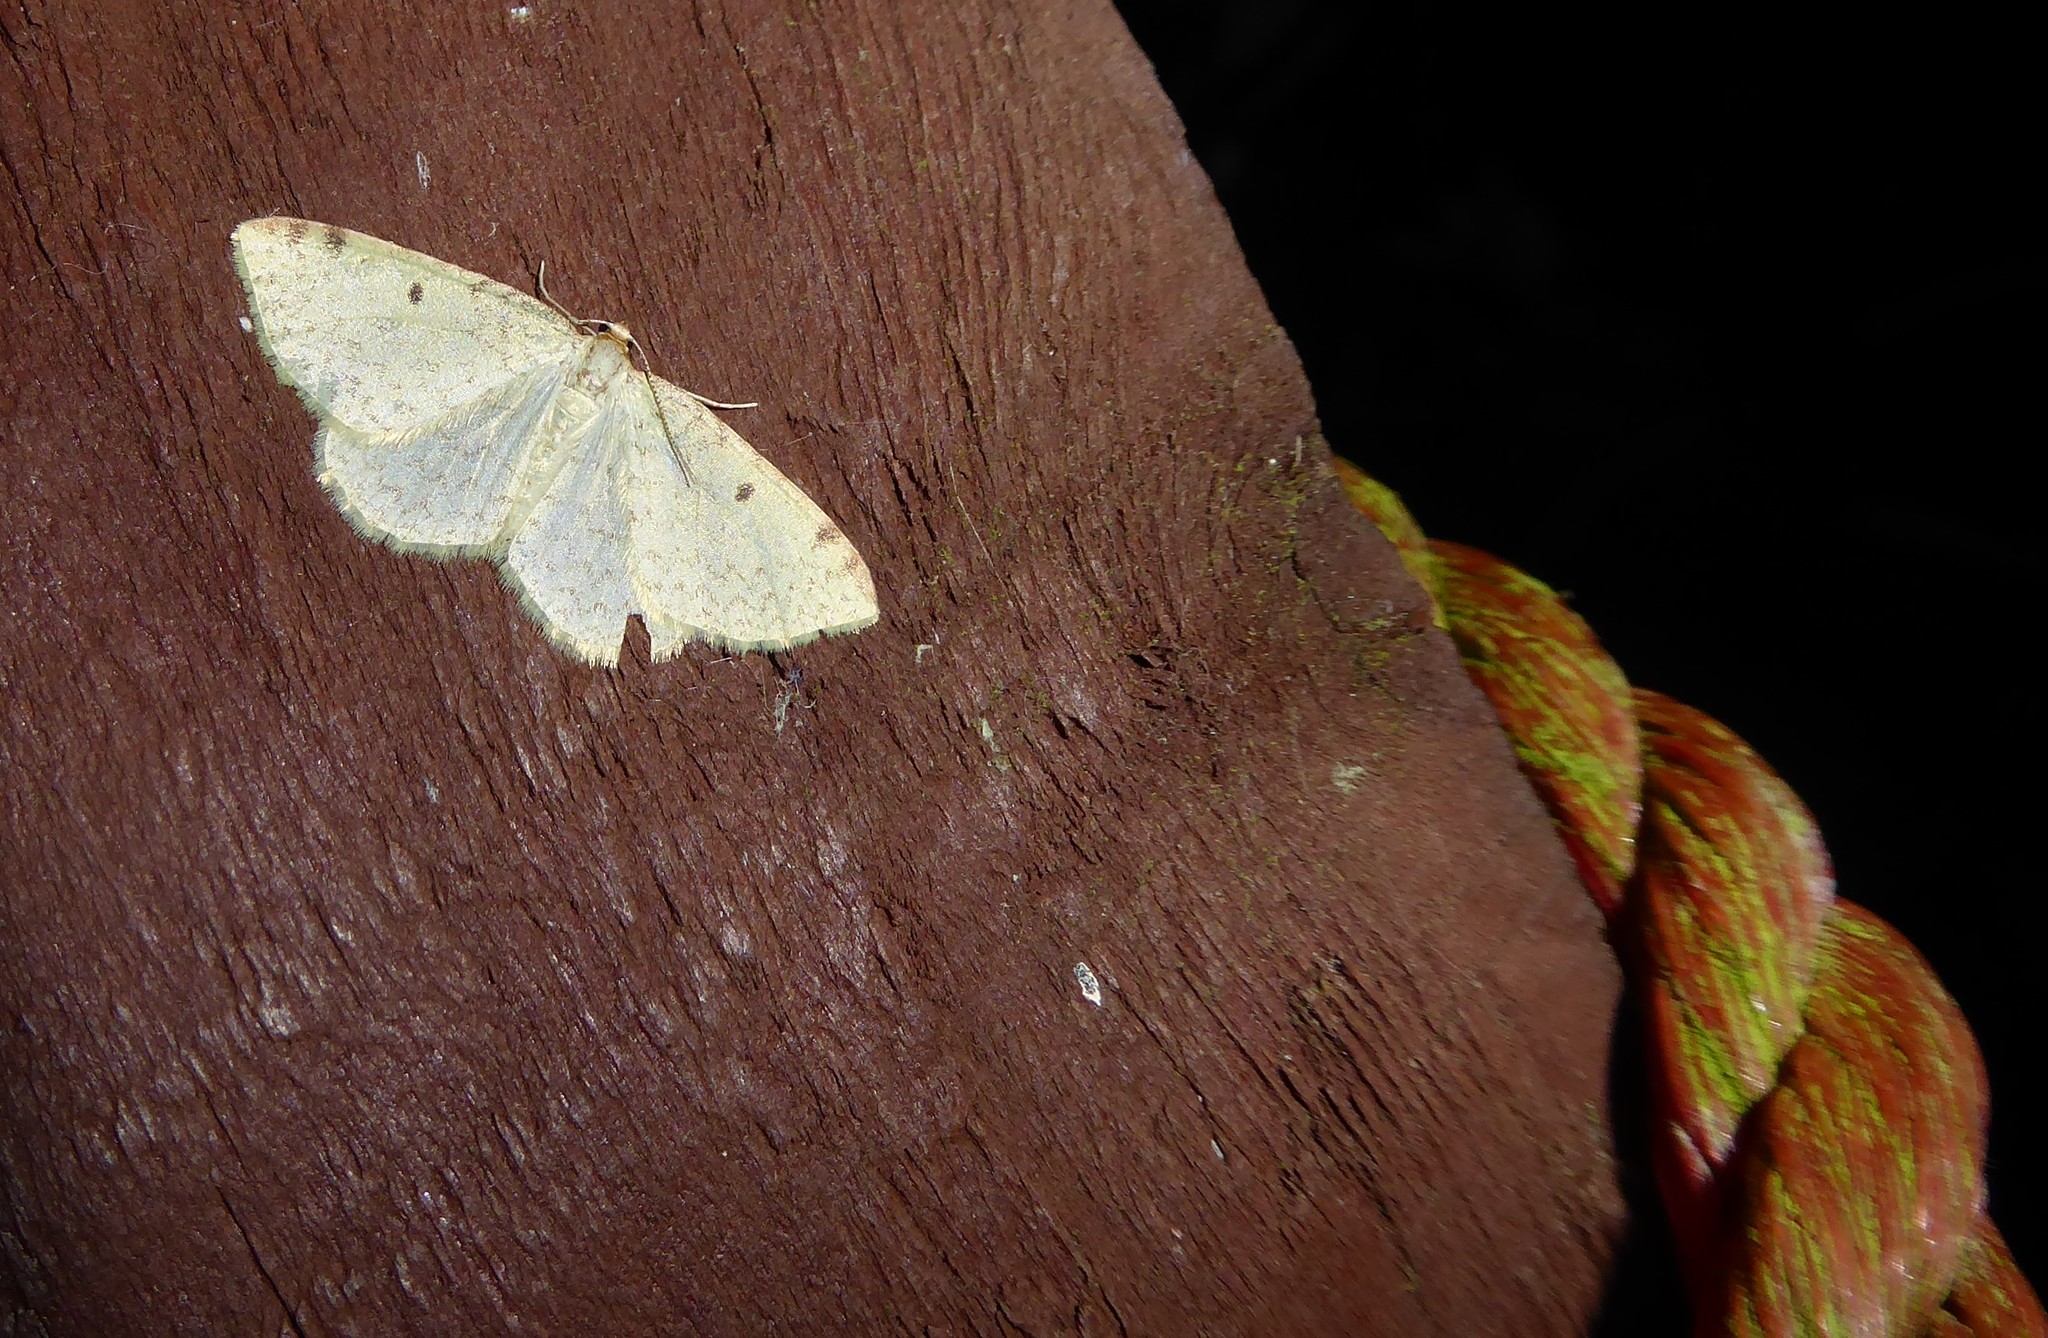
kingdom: Animalia
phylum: Arthropoda
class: Insecta
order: Lepidoptera
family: Geometridae
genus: Epiphryne
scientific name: Epiphryne undosata
